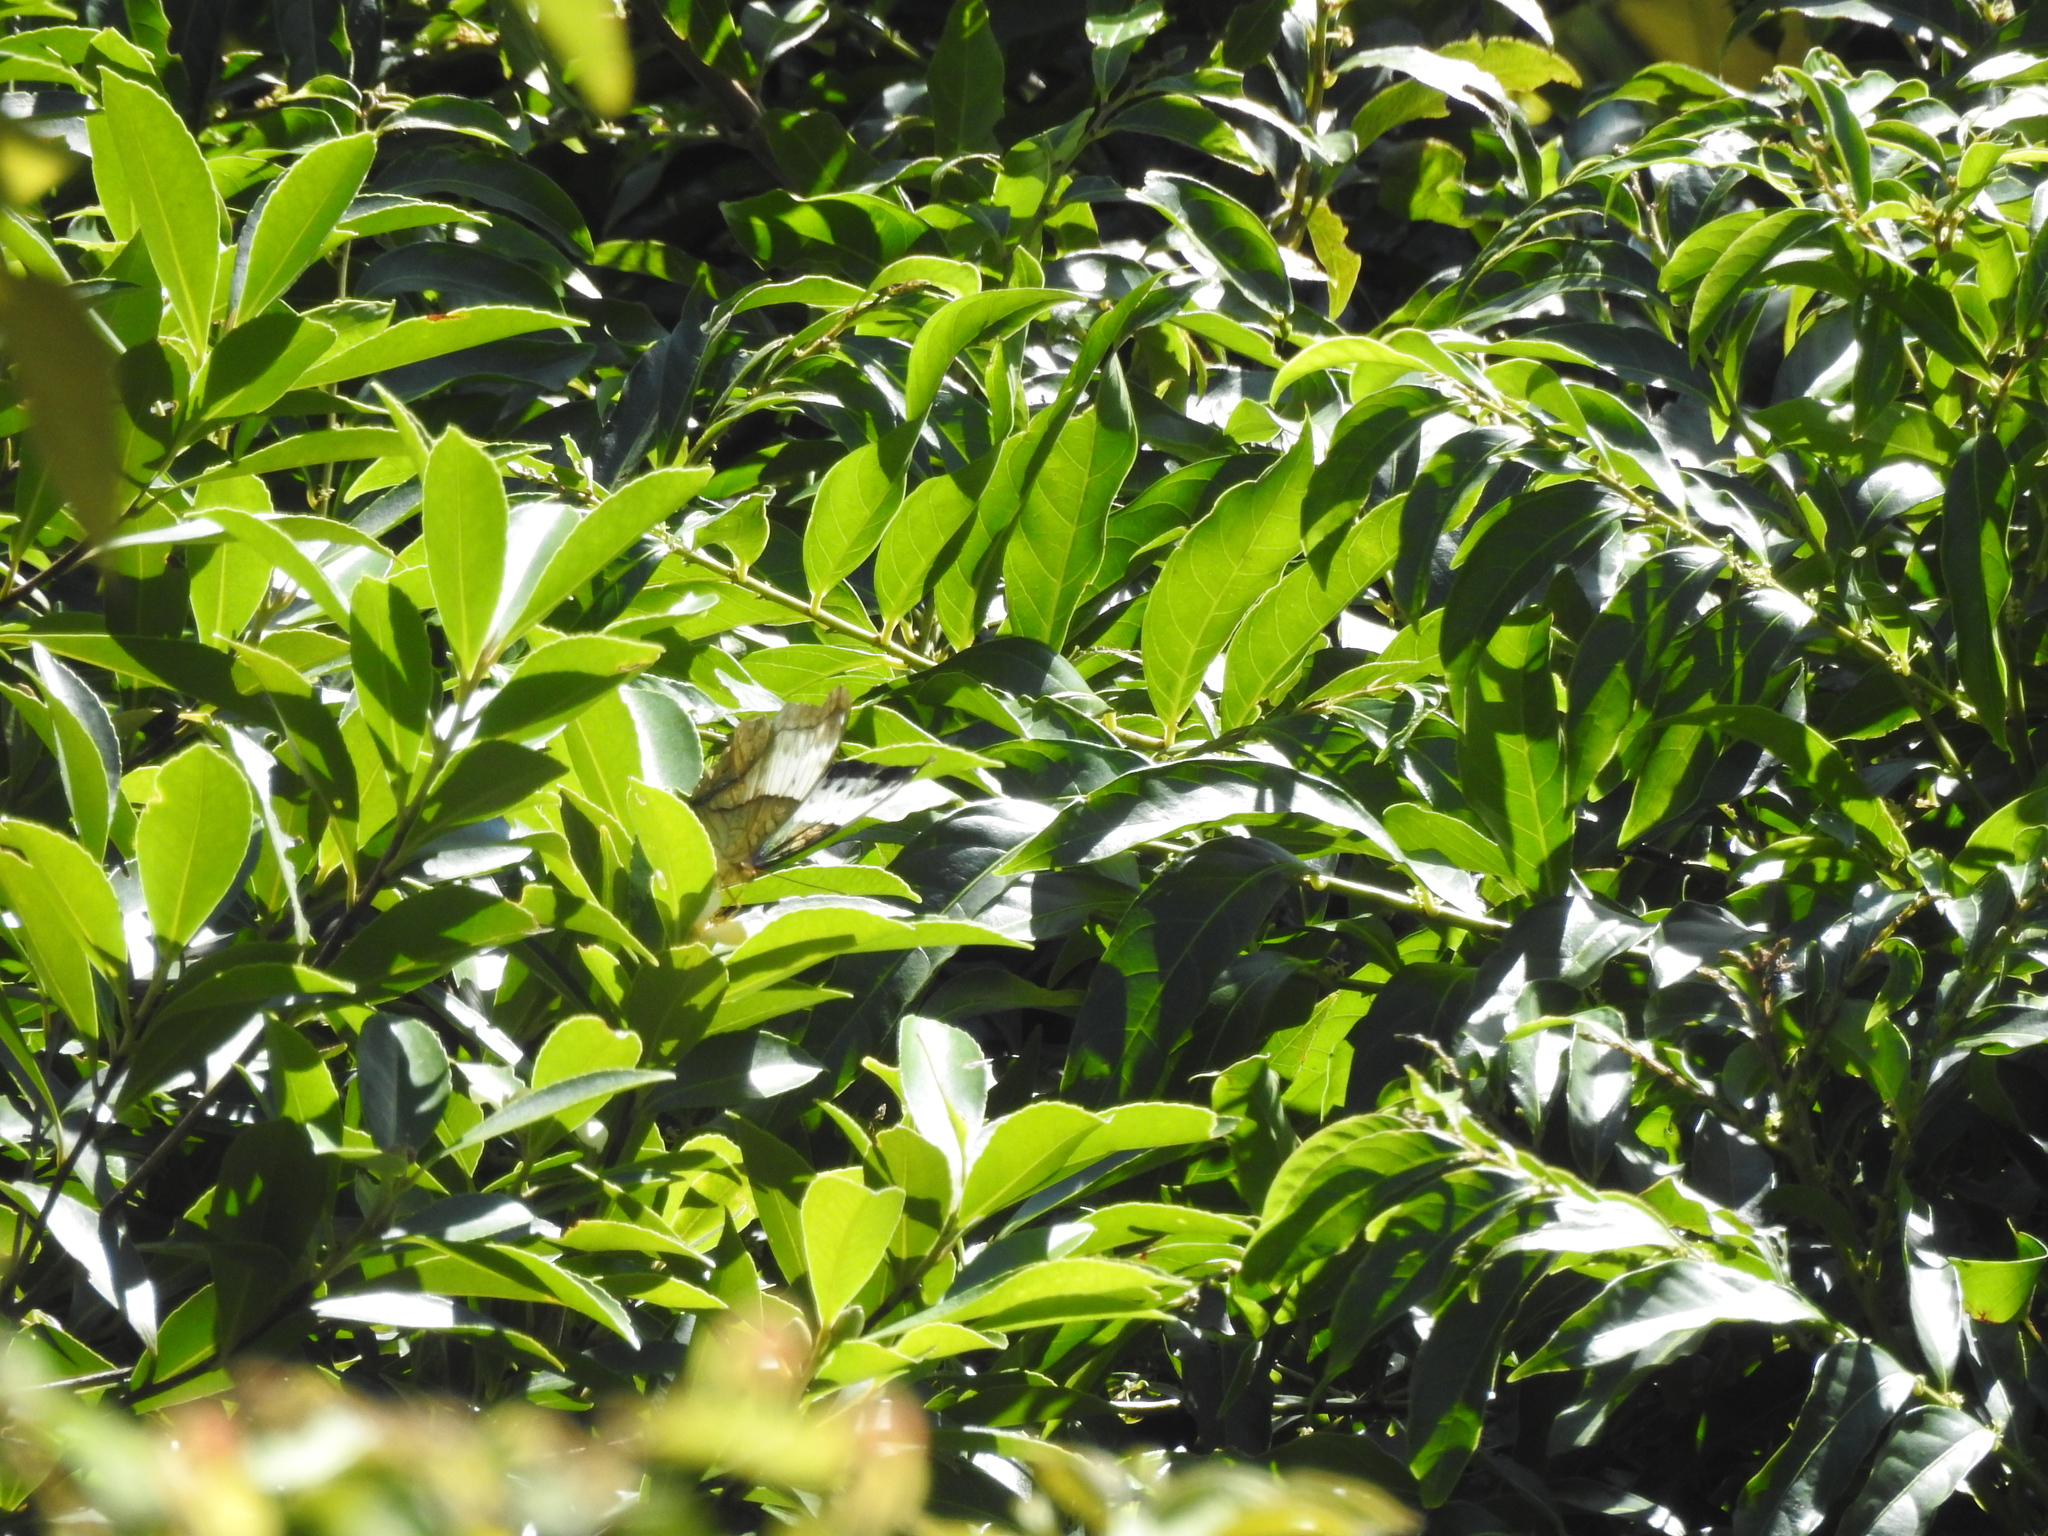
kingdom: Animalia
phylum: Arthropoda
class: Insecta
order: Lepidoptera
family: Nymphalidae
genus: Vindula
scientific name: Vindula erota
